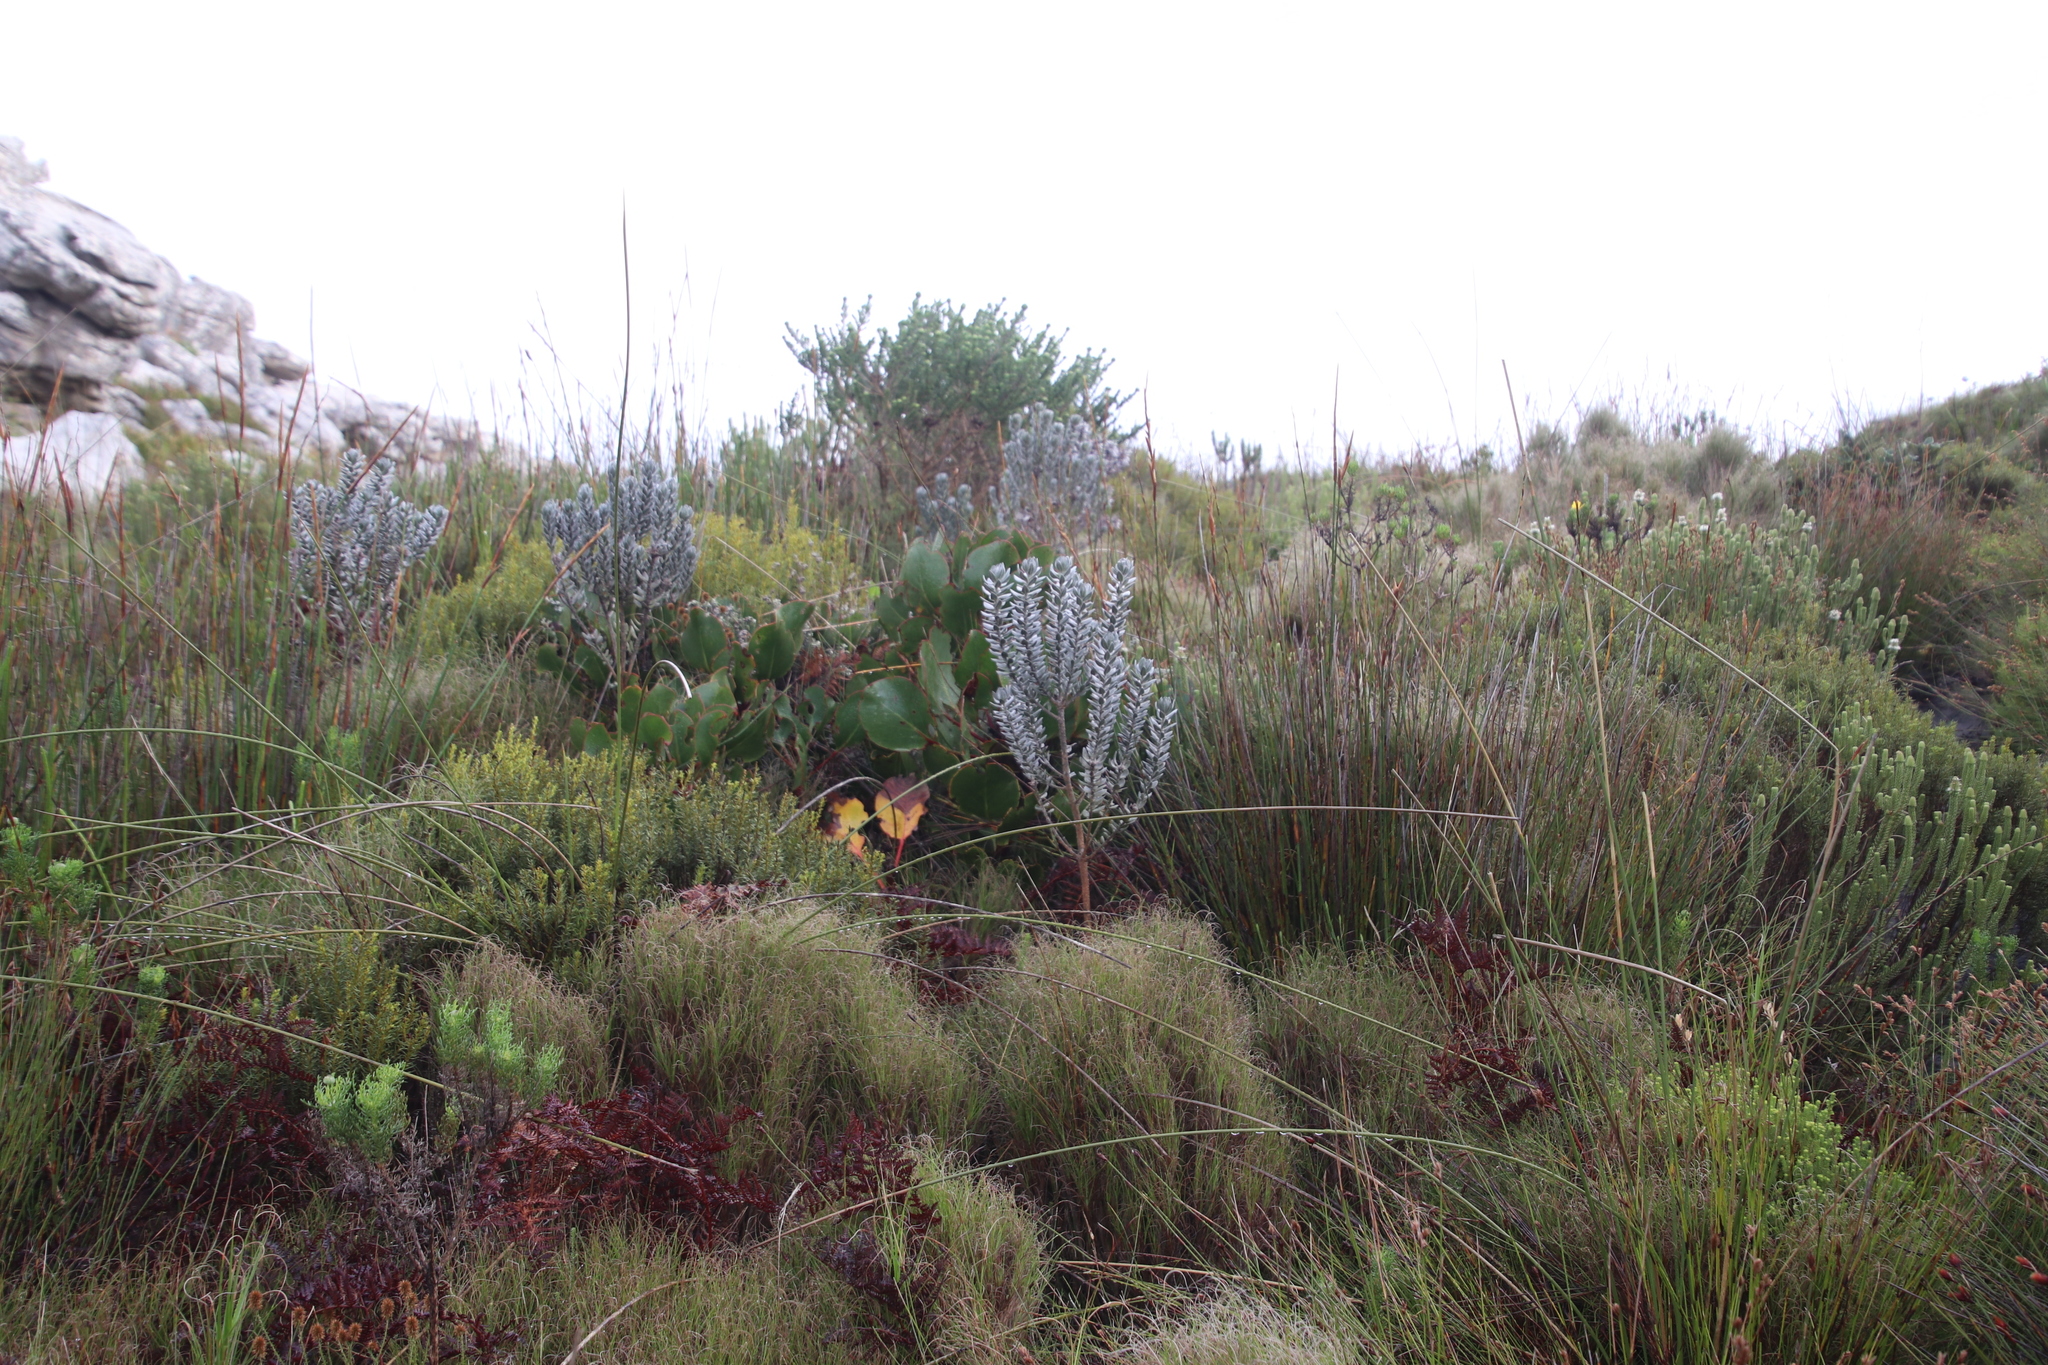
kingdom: Plantae
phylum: Tracheophyta
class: Magnoliopsida
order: Fabales
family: Fabaceae
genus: Xiphotheca
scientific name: Xiphotheca fruticosa
